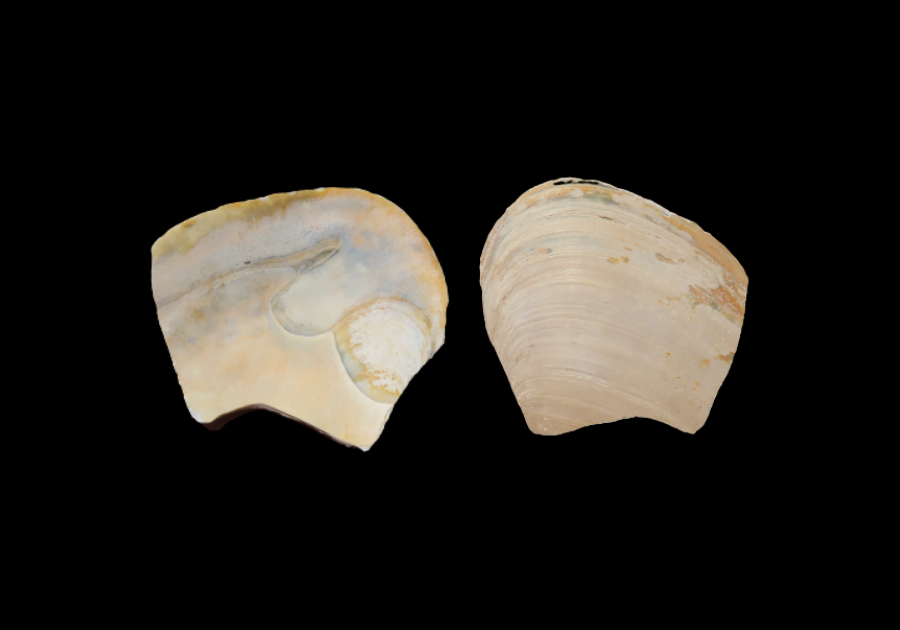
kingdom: Animalia
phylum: Mollusca
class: Bivalvia
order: Venerida
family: Mactridae
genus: Spisula
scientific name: Spisula solidissima
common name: Atlantic surf clam
